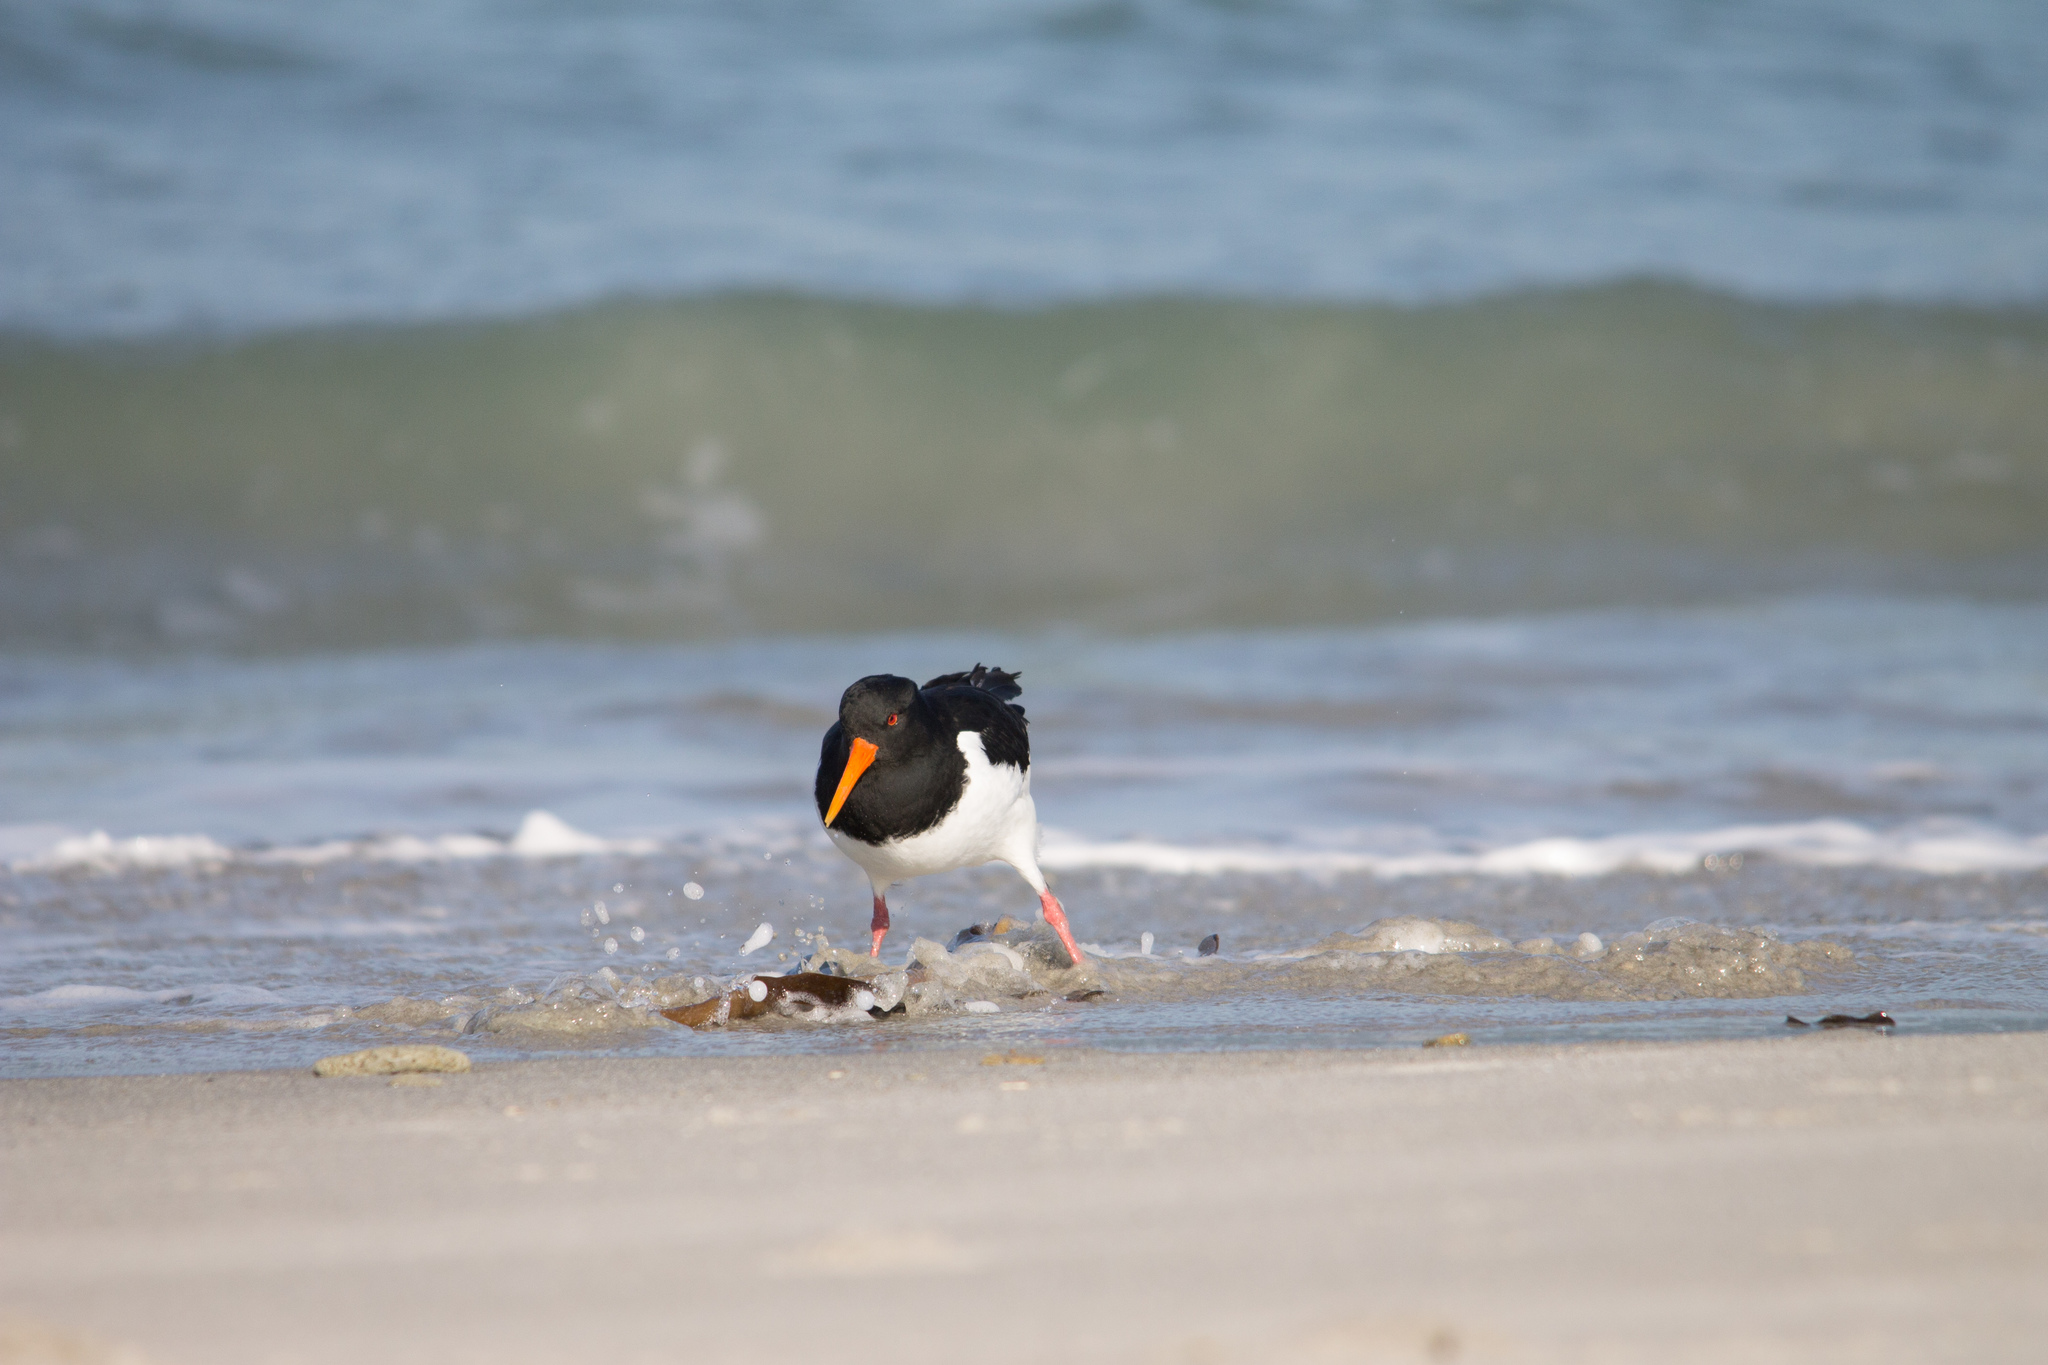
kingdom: Animalia
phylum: Chordata
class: Aves
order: Charadriiformes
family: Haematopodidae
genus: Haematopus
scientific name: Haematopus ostralegus
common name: Eurasian oystercatcher
